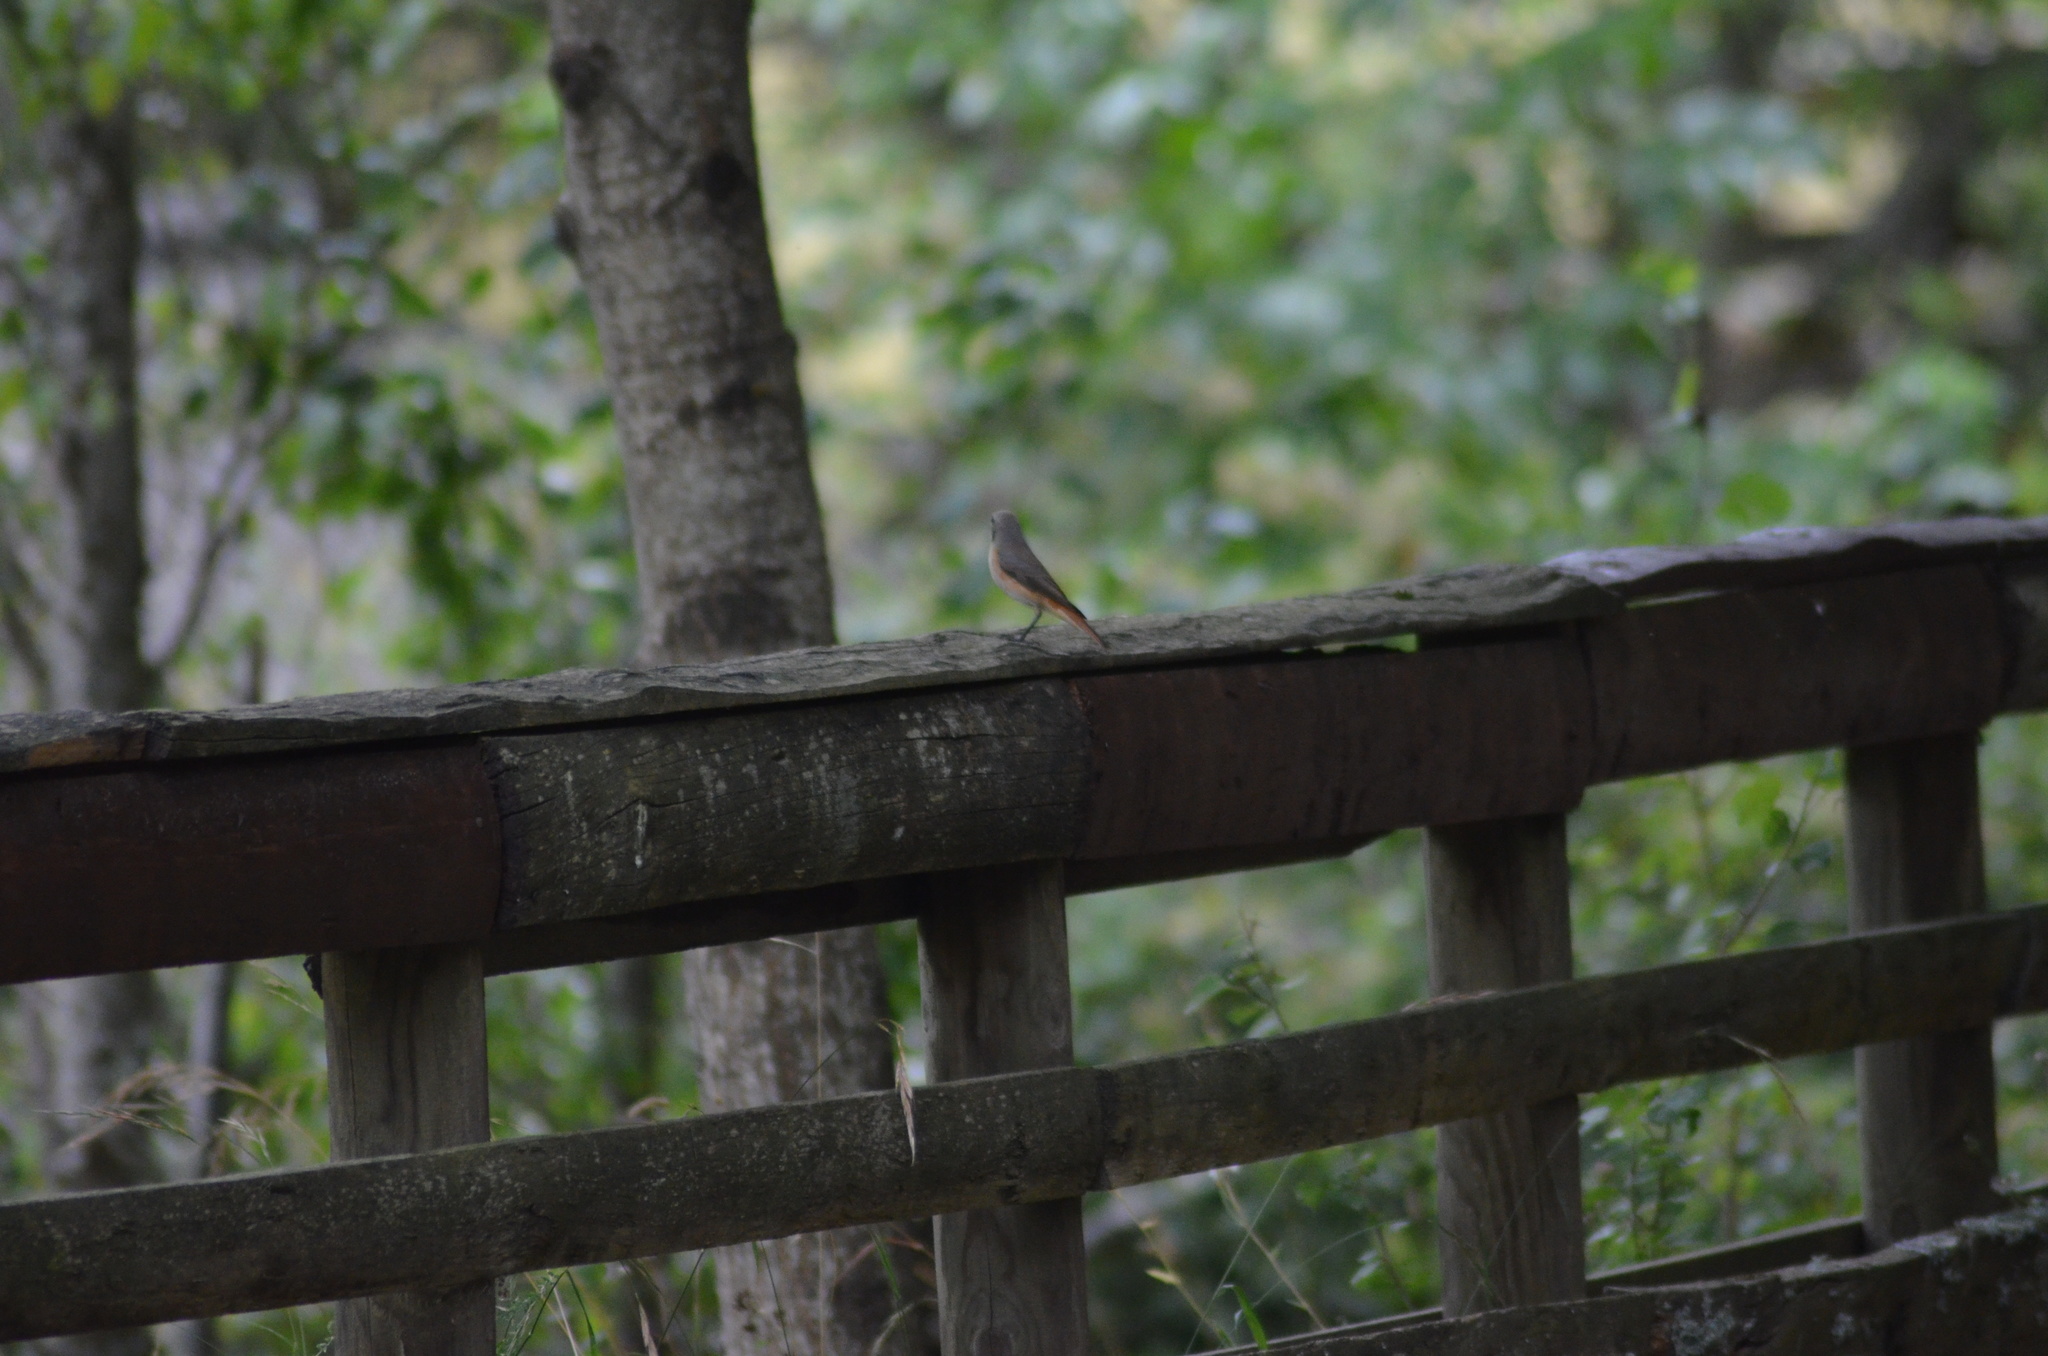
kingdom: Animalia
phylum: Chordata
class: Aves
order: Passeriformes
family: Muscicapidae
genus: Phoenicurus
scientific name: Phoenicurus phoenicurus
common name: Common redstart
